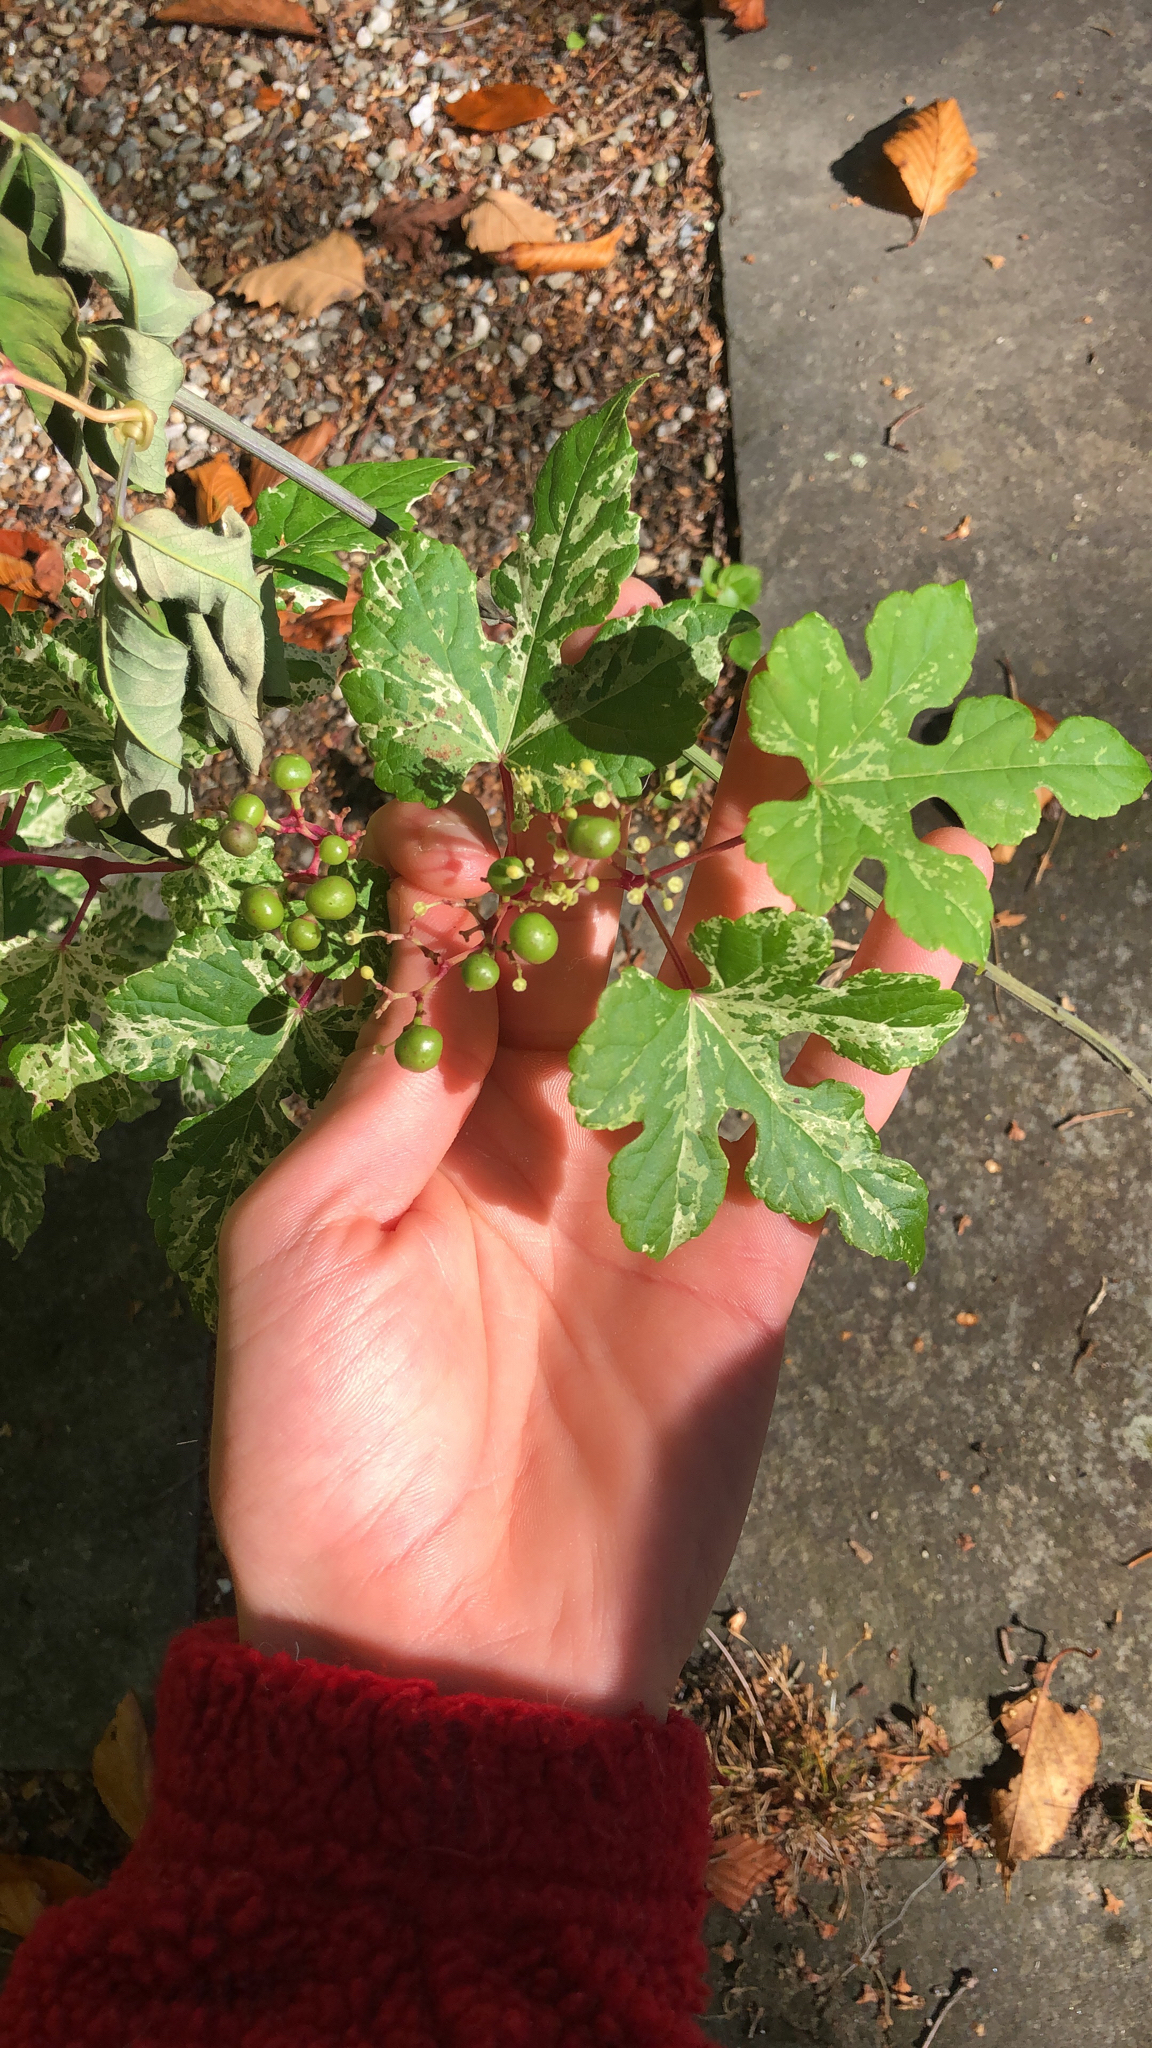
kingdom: Plantae
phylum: Tracheophyta
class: Magnoliopsida
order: Vitales
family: Vitaceae
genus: Ampelopsis
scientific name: Ampelopsis glandulosa
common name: Amur peppervine
